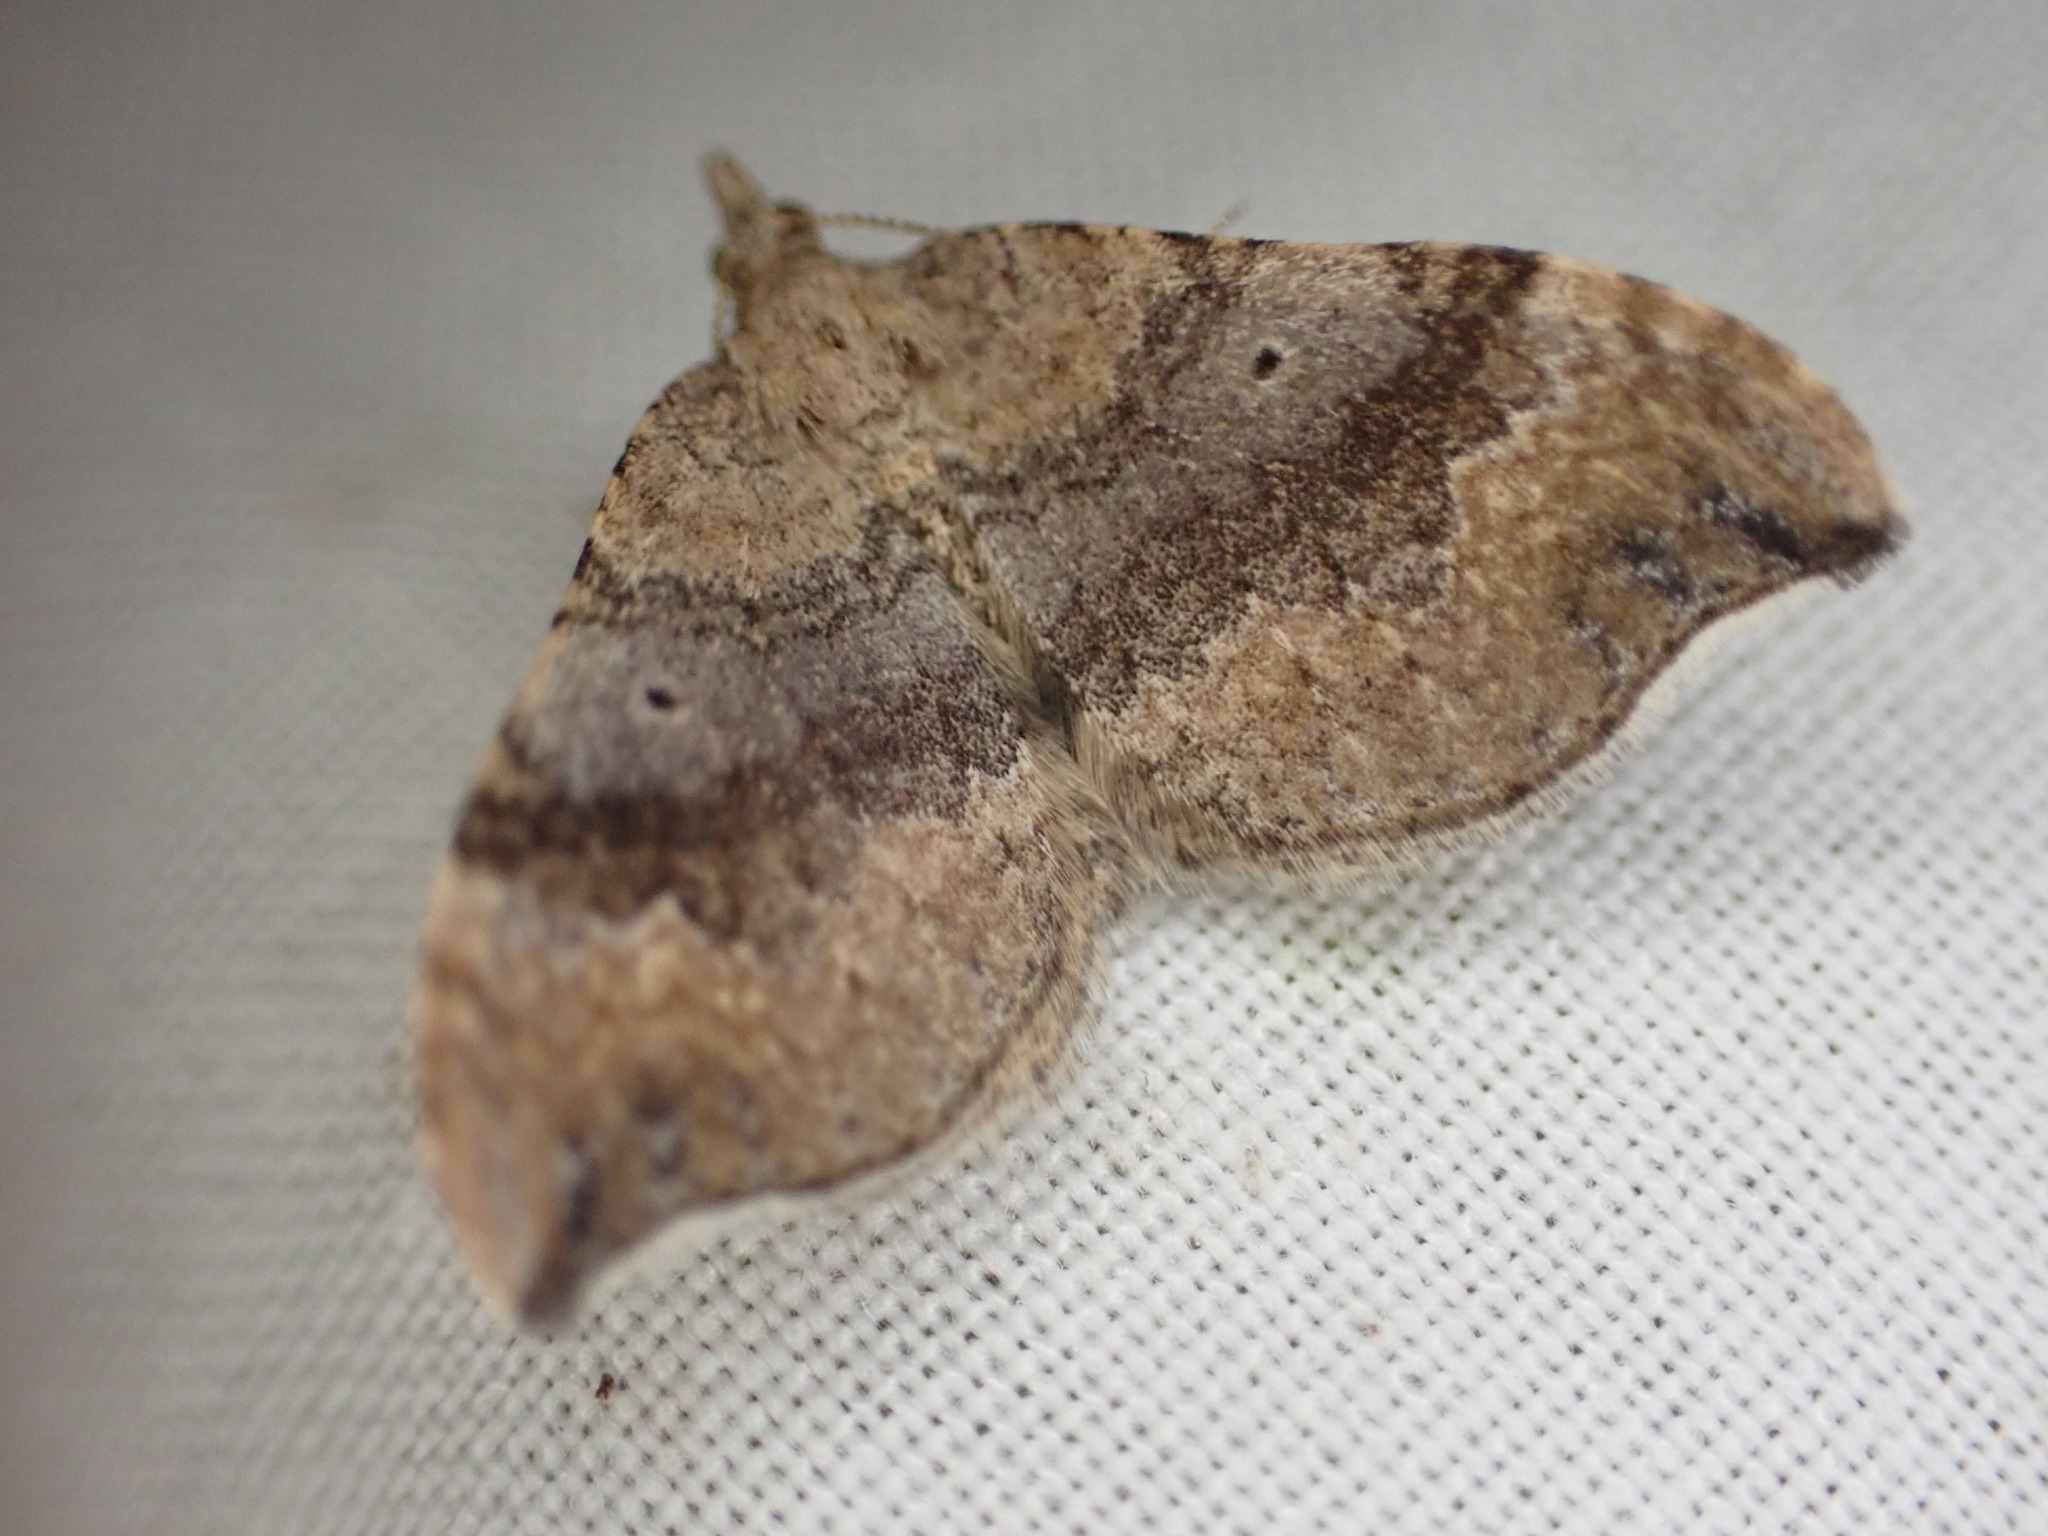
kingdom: Animalia
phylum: Arthropoda
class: Insecta
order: Lepidoptera
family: Geometridae
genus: Homodotis
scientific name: Homodotis megaspilata
